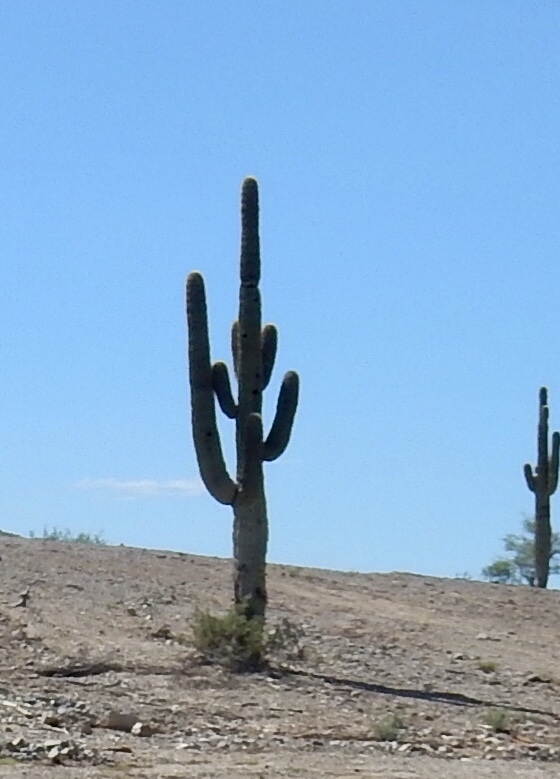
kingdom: Plantae
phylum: Tracheophyta
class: Magnoliopsida
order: Caryophyllales
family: Cactaceae
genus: Carnegiea
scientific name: Carnegiea gigantea
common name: Saguaro
